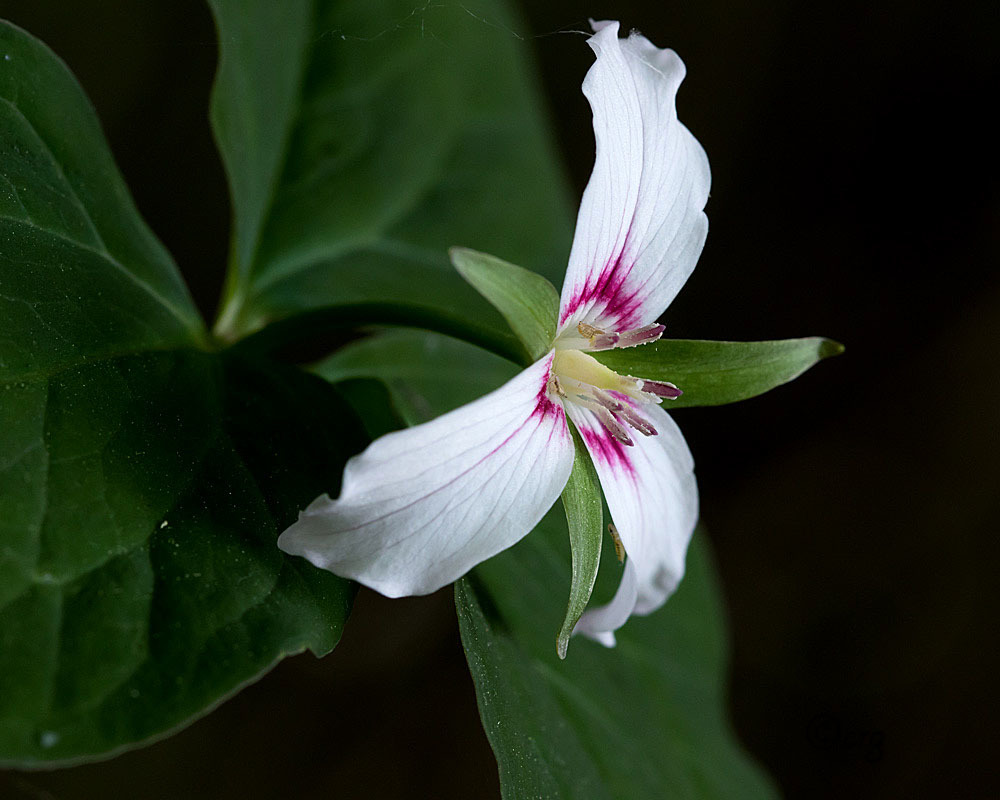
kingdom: Plantae
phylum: Tracheophyta
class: Liliopsida
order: Liliales
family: Melanthiaceae
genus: Trillium
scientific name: Trillium undulatum
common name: Paint trillium
